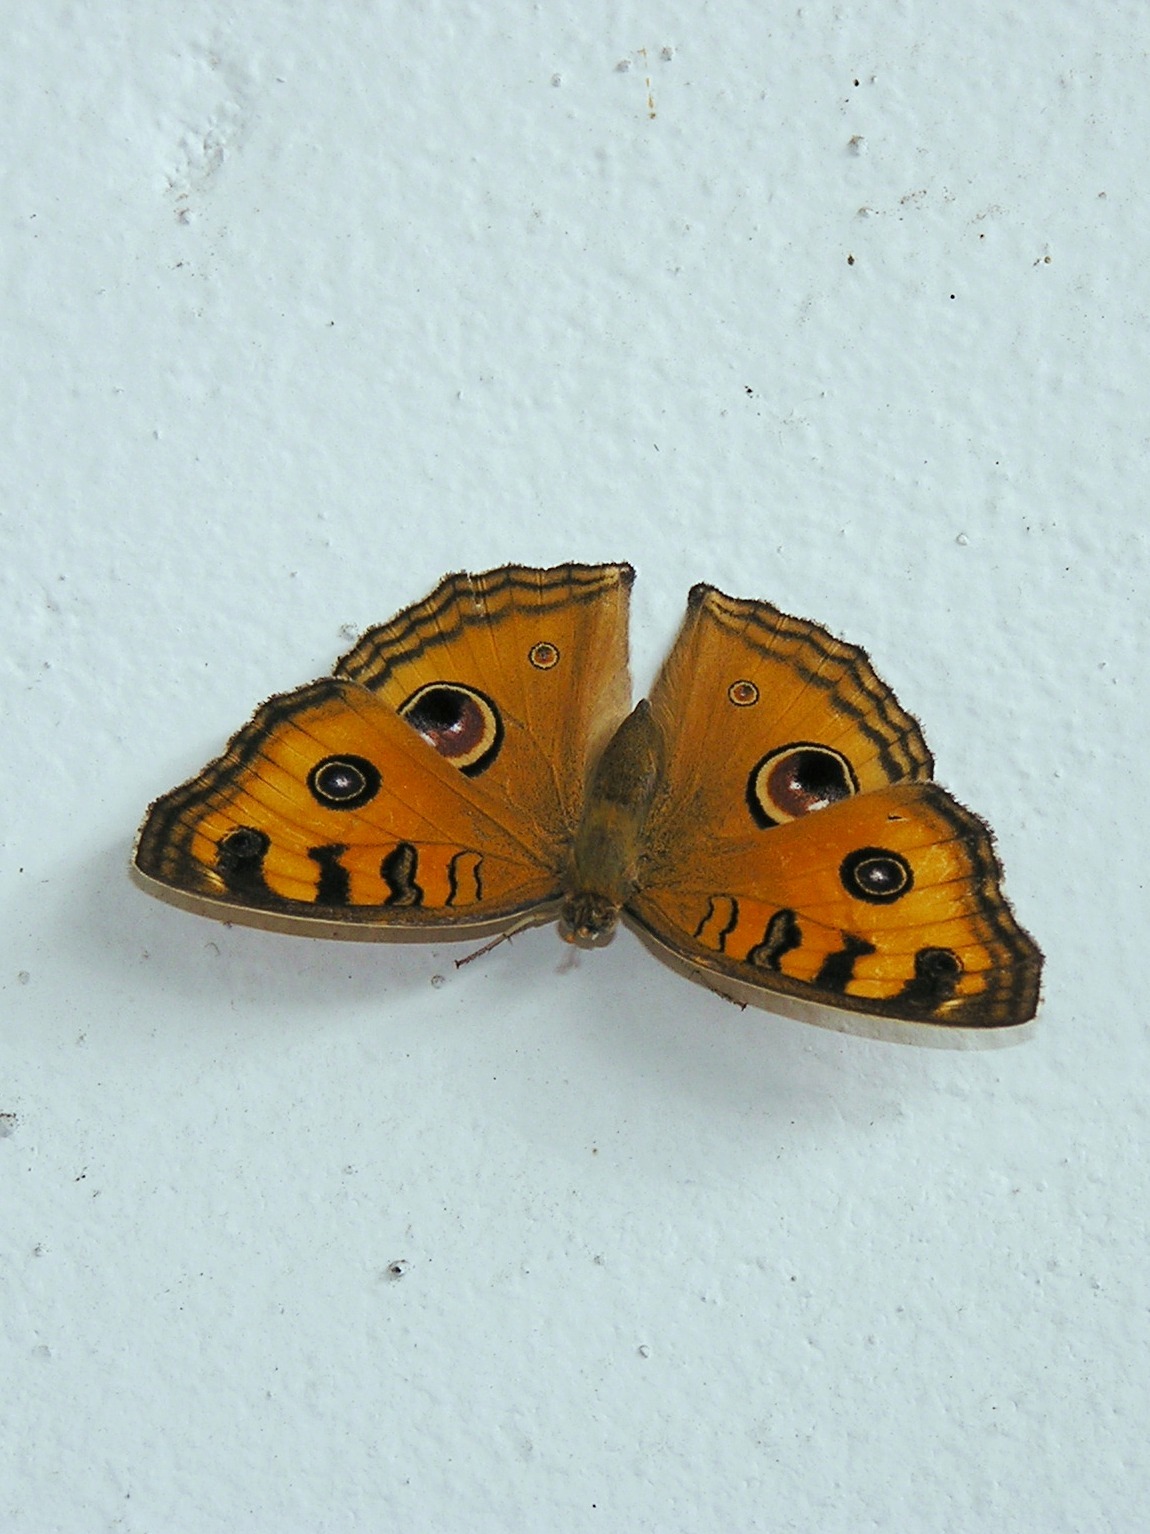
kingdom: Animalia
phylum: Arthropoda
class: Insecta
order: Lepidoptera
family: Nymphalidae
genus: Junonia
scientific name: Junonia almana
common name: Peacock pansy
